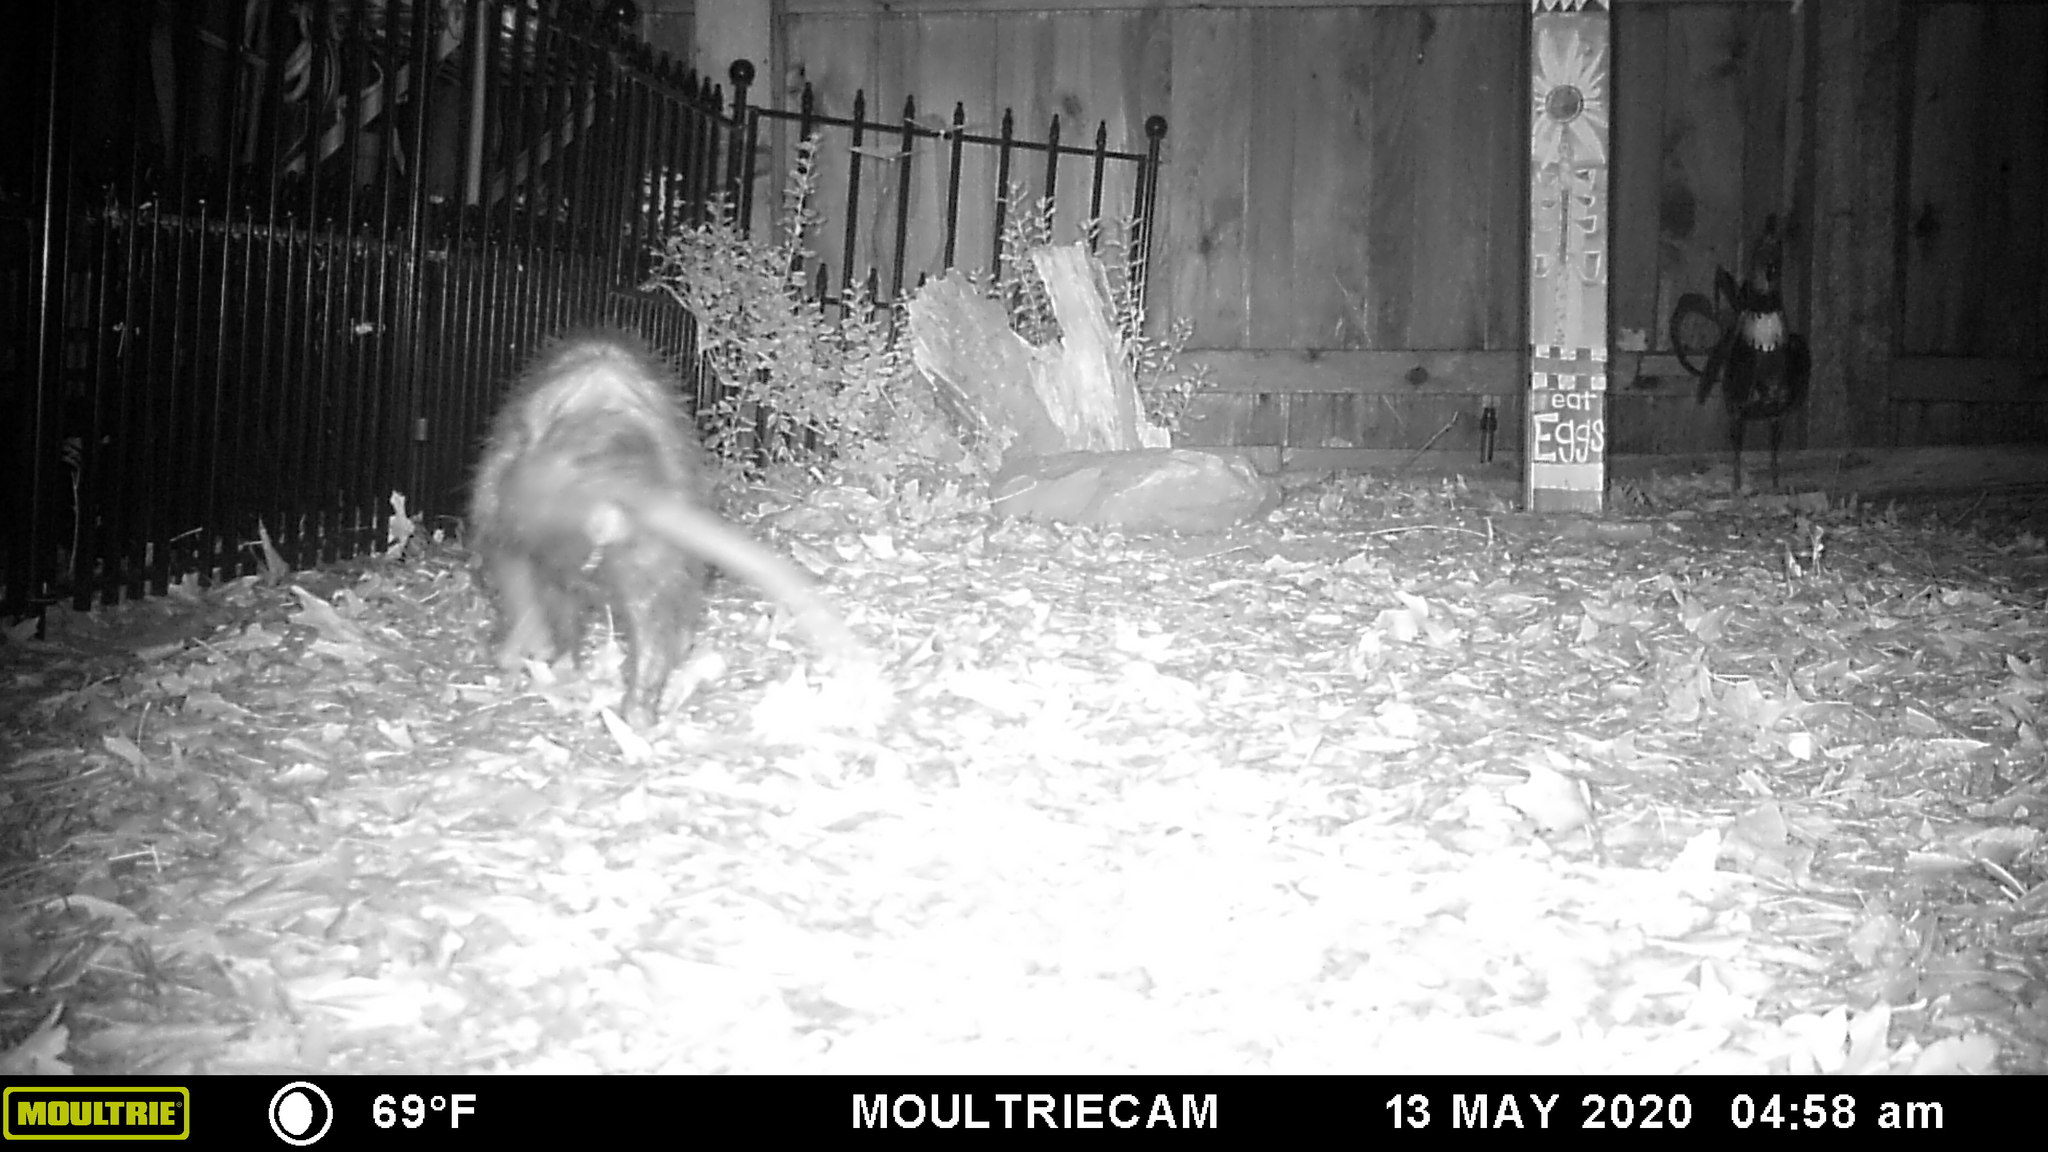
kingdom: Animalia
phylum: Chordata
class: Mammalia
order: Didelphimorphia
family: Didelphidae
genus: Didelphis
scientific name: Didelphis virginiana
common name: Virginia opossum
